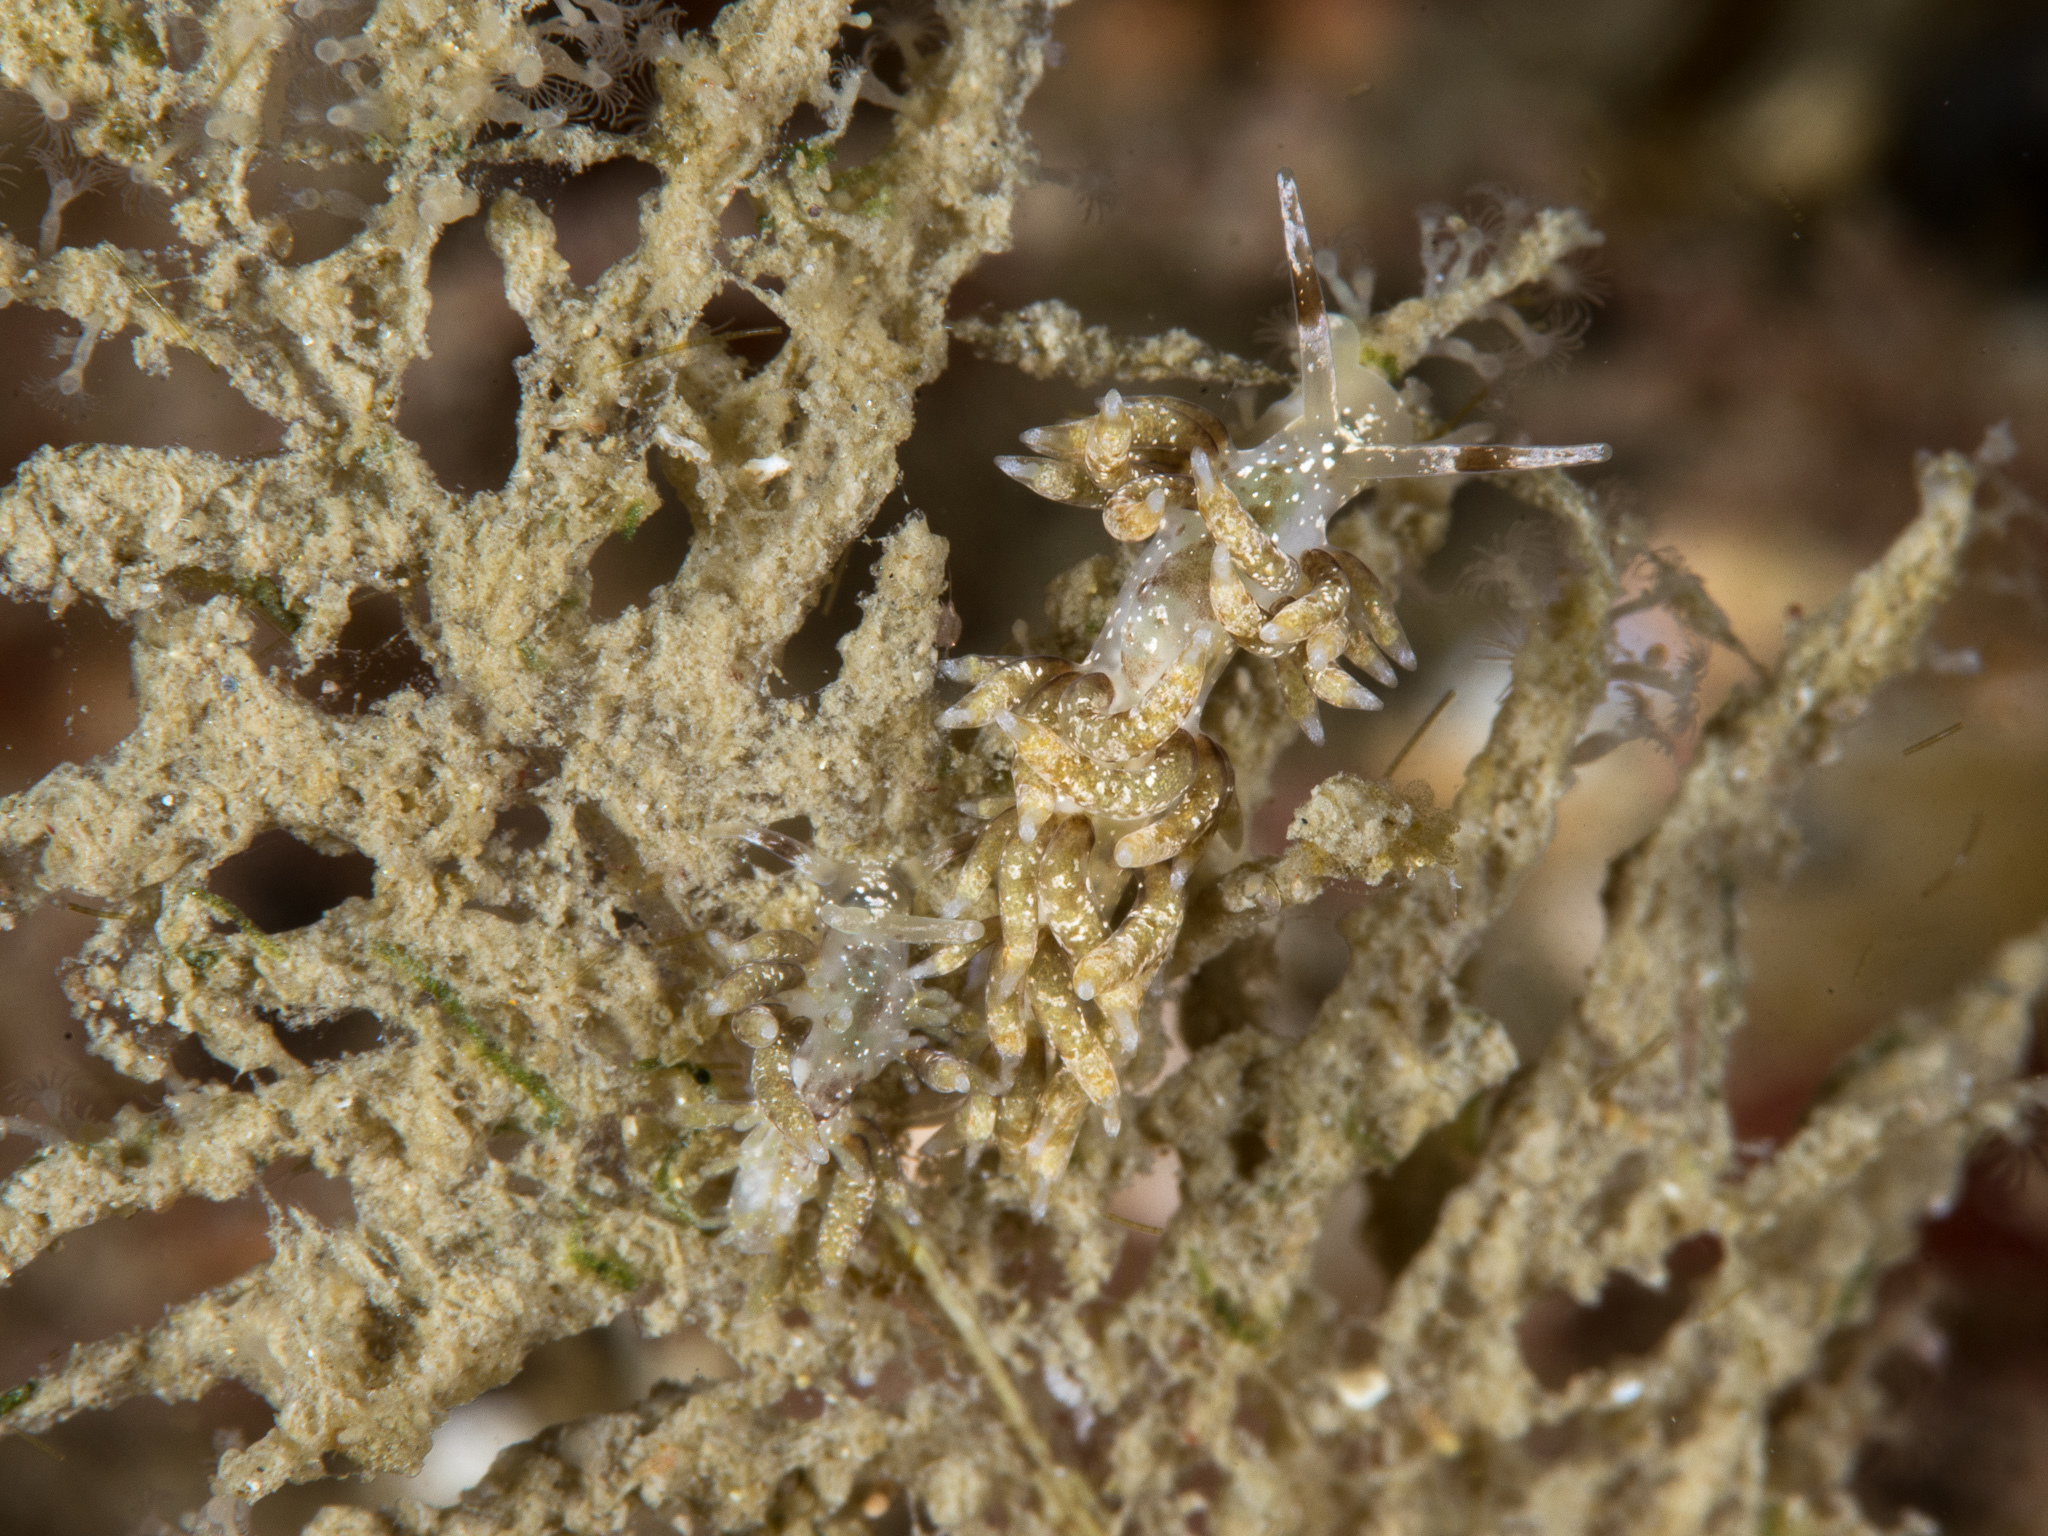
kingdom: Animalia
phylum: Mollusca
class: Gastropoda
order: Nudibranchia
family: Trinchesiidae
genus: Rubramoena
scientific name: Rubramoena amoena
